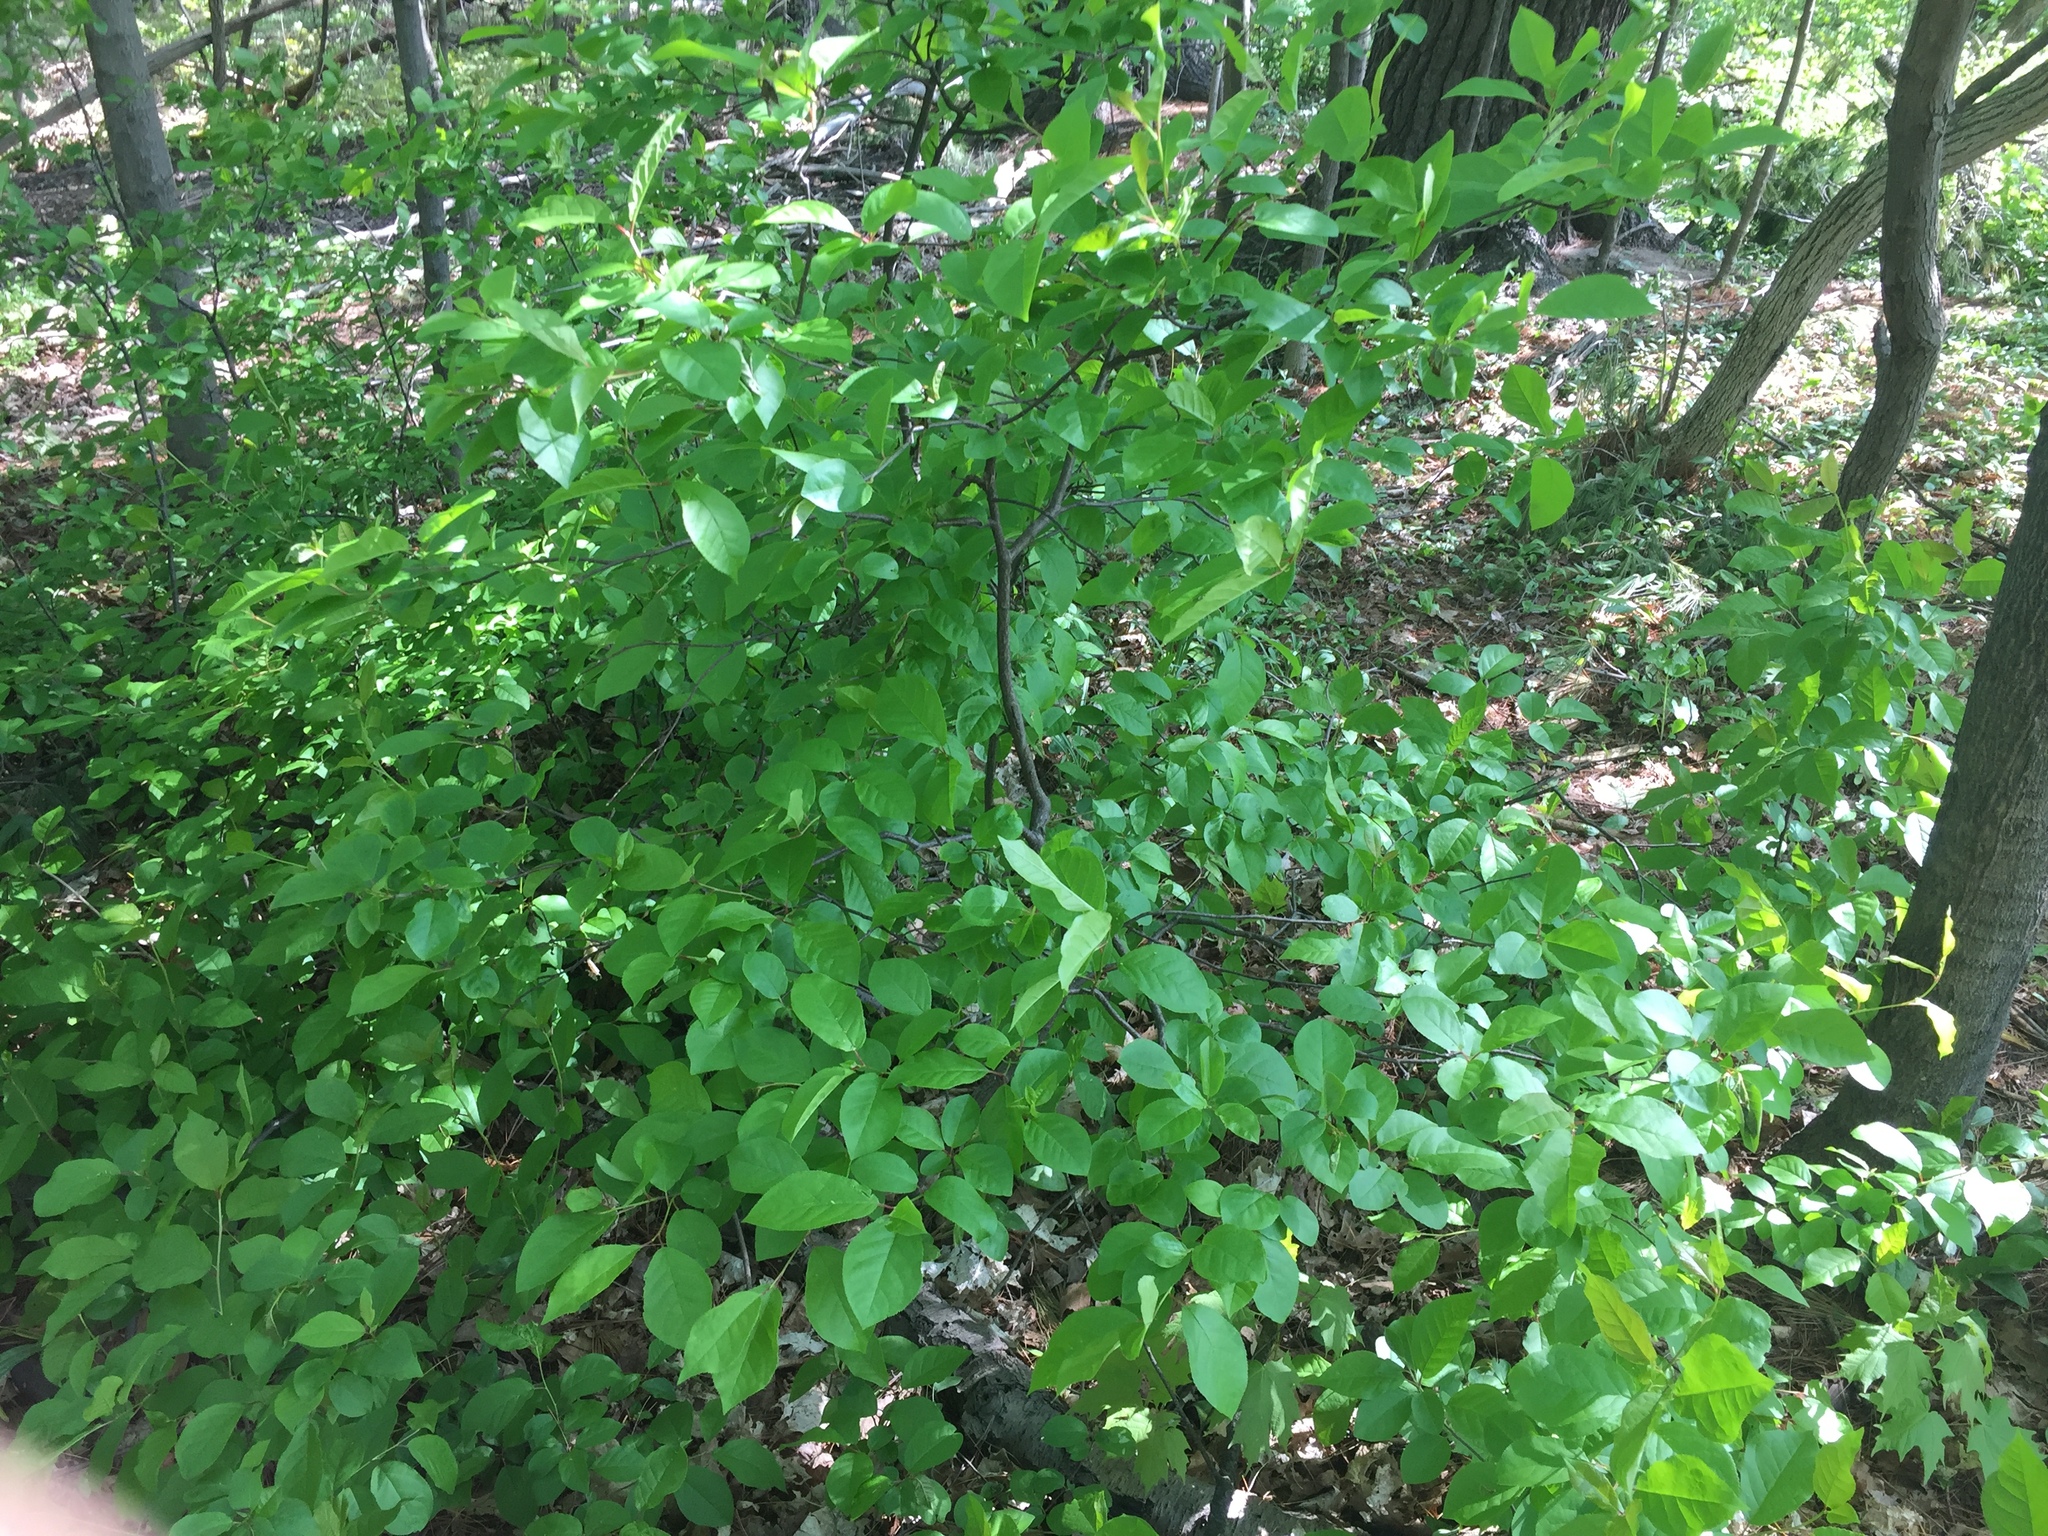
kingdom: Plantae
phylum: Tracheophyta
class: Magnoliopsida
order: Rosales
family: Rosaceae
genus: Prunus
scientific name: Prunus virginiana
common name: Chokecherry
